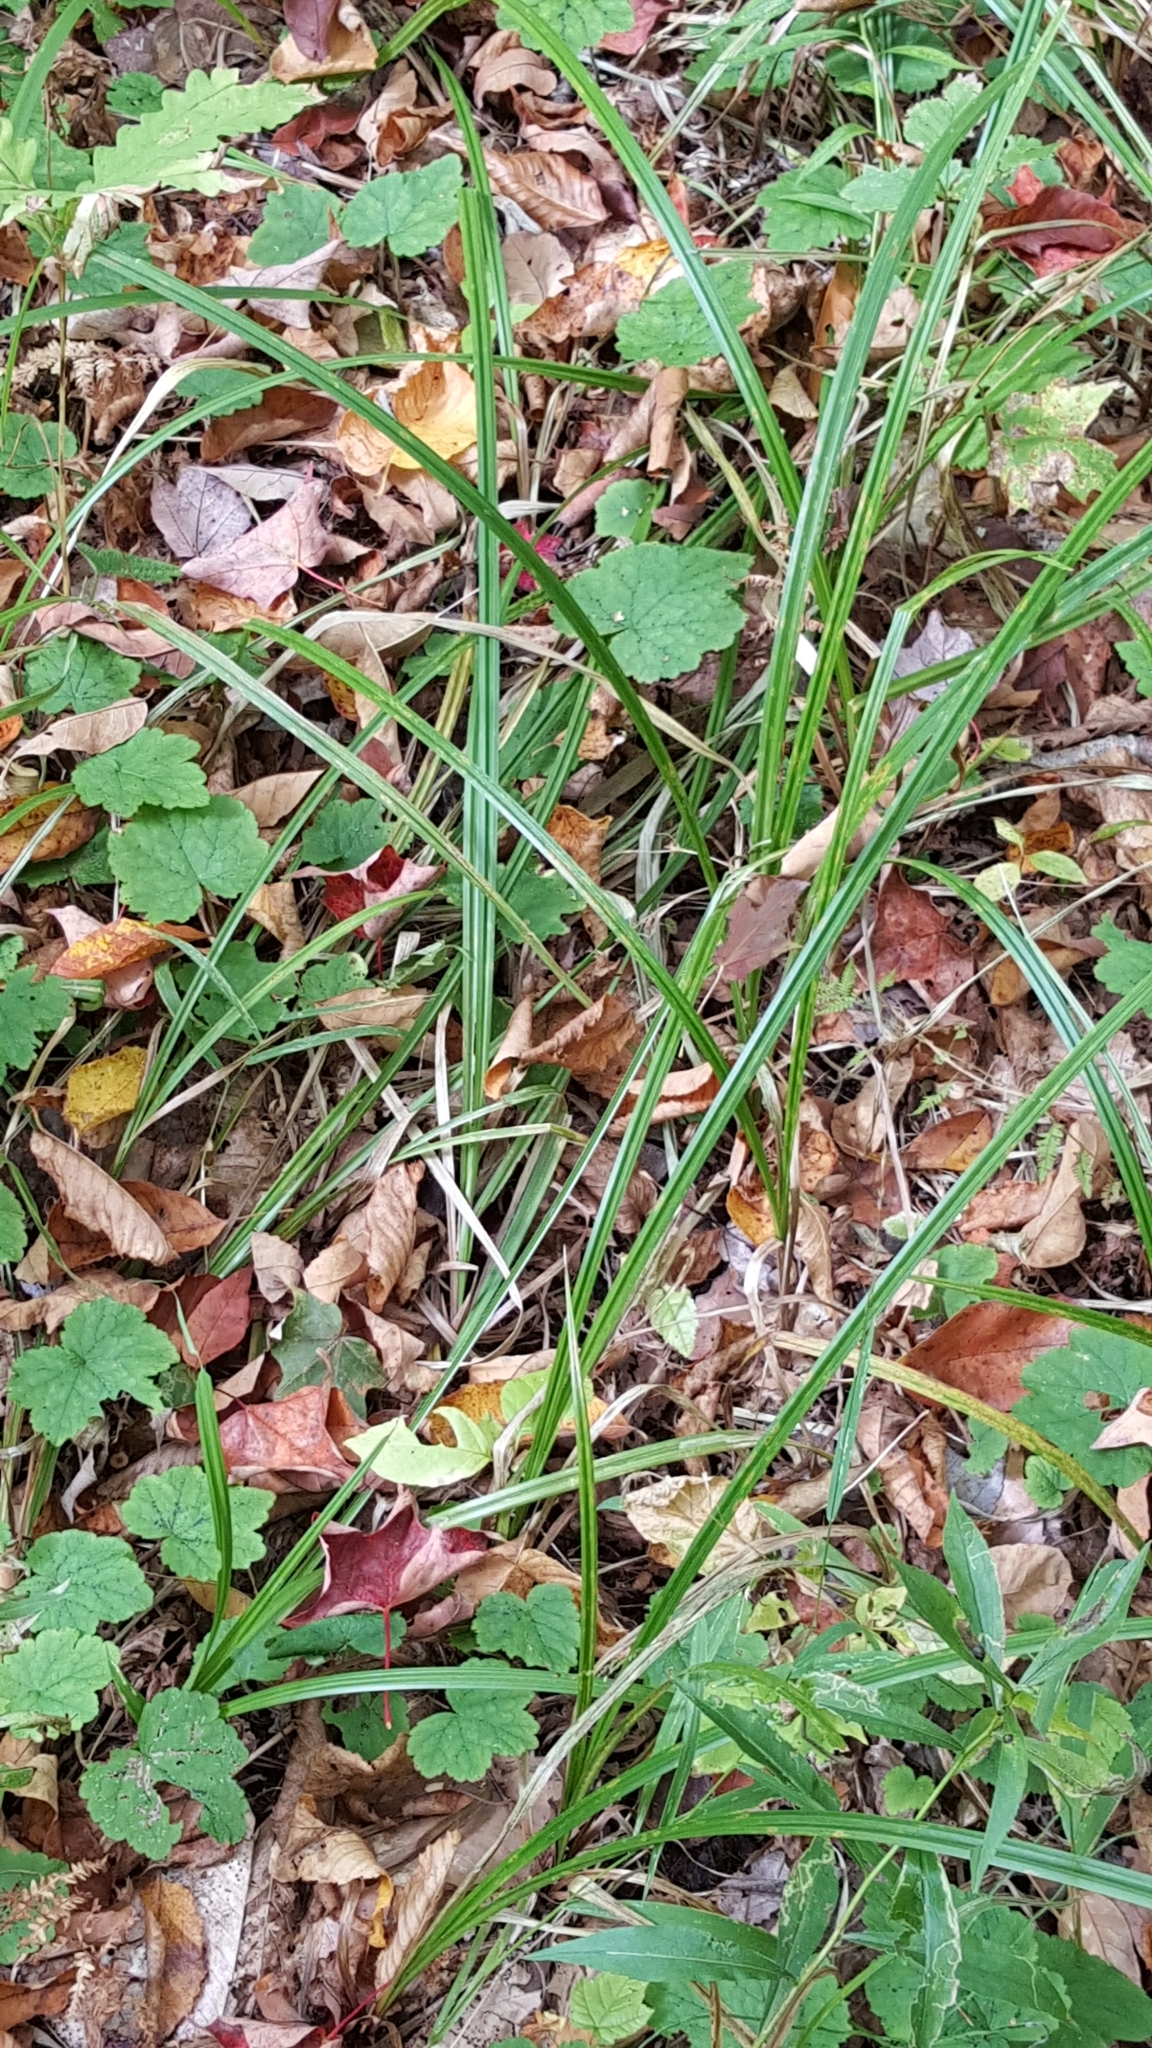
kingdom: Plantae
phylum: Tracheophyta
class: Liliopsida
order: Poales
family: Cyperaceae
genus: Carex
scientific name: Carex scabrata
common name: Eastern rough sedge
